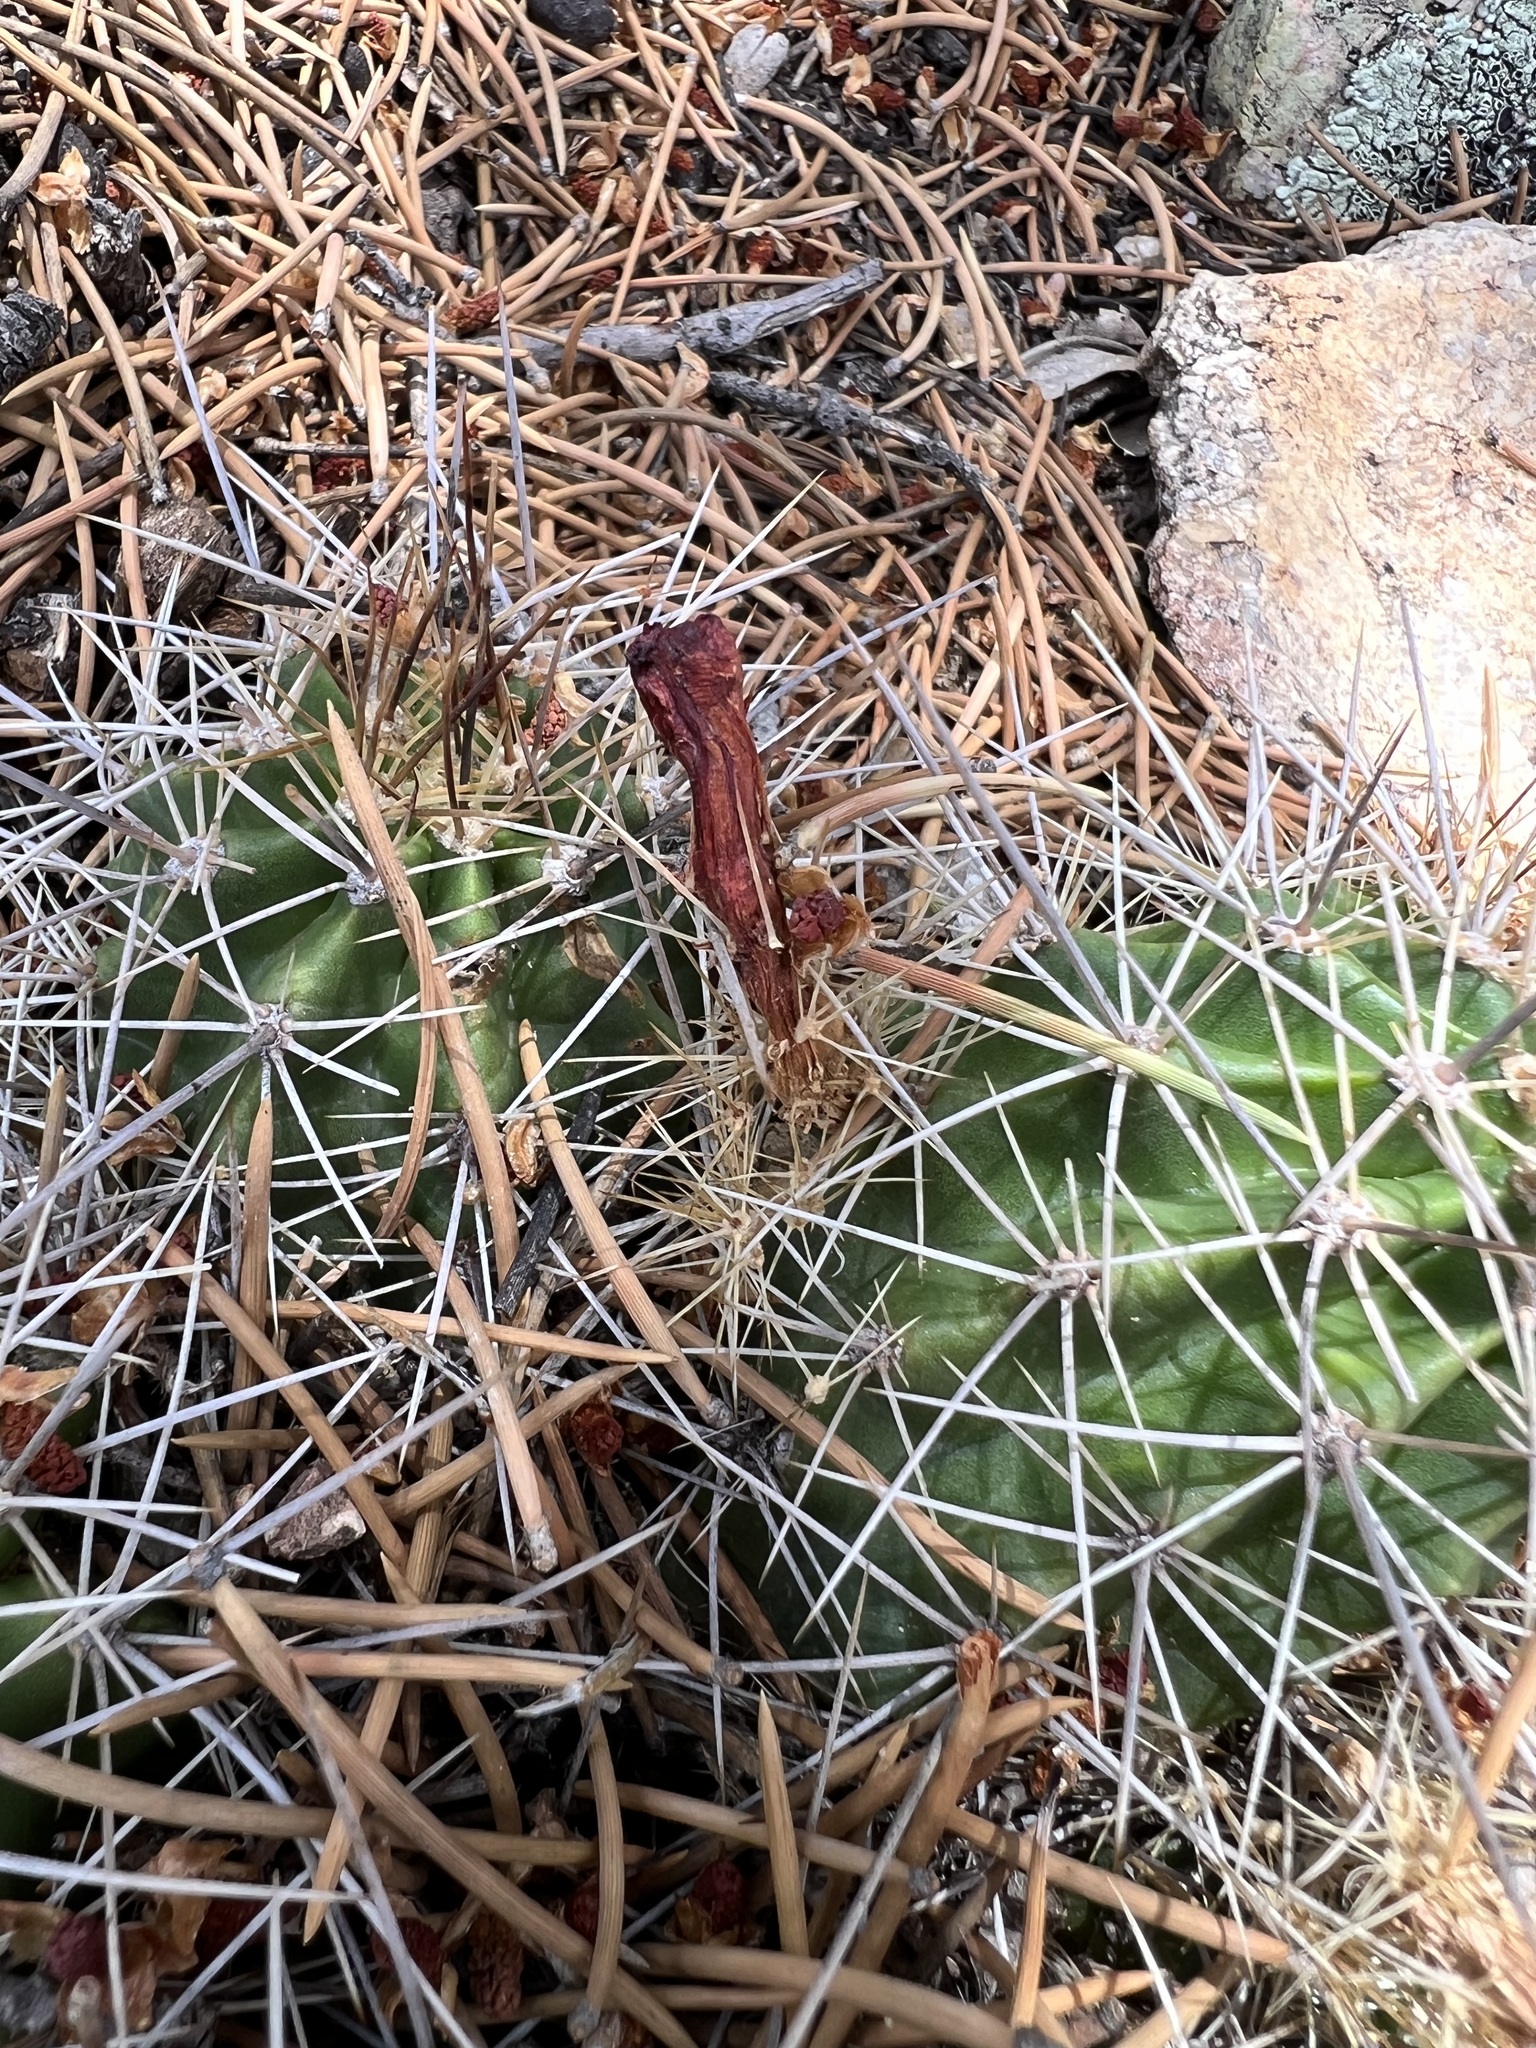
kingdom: Plantae
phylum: Tracheophyta
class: Magnoliopsida
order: Caryophyllales
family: Cactaceae
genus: Echinocereus
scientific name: Echinocereus triglochidiatus
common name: Claretcup hedgehog
